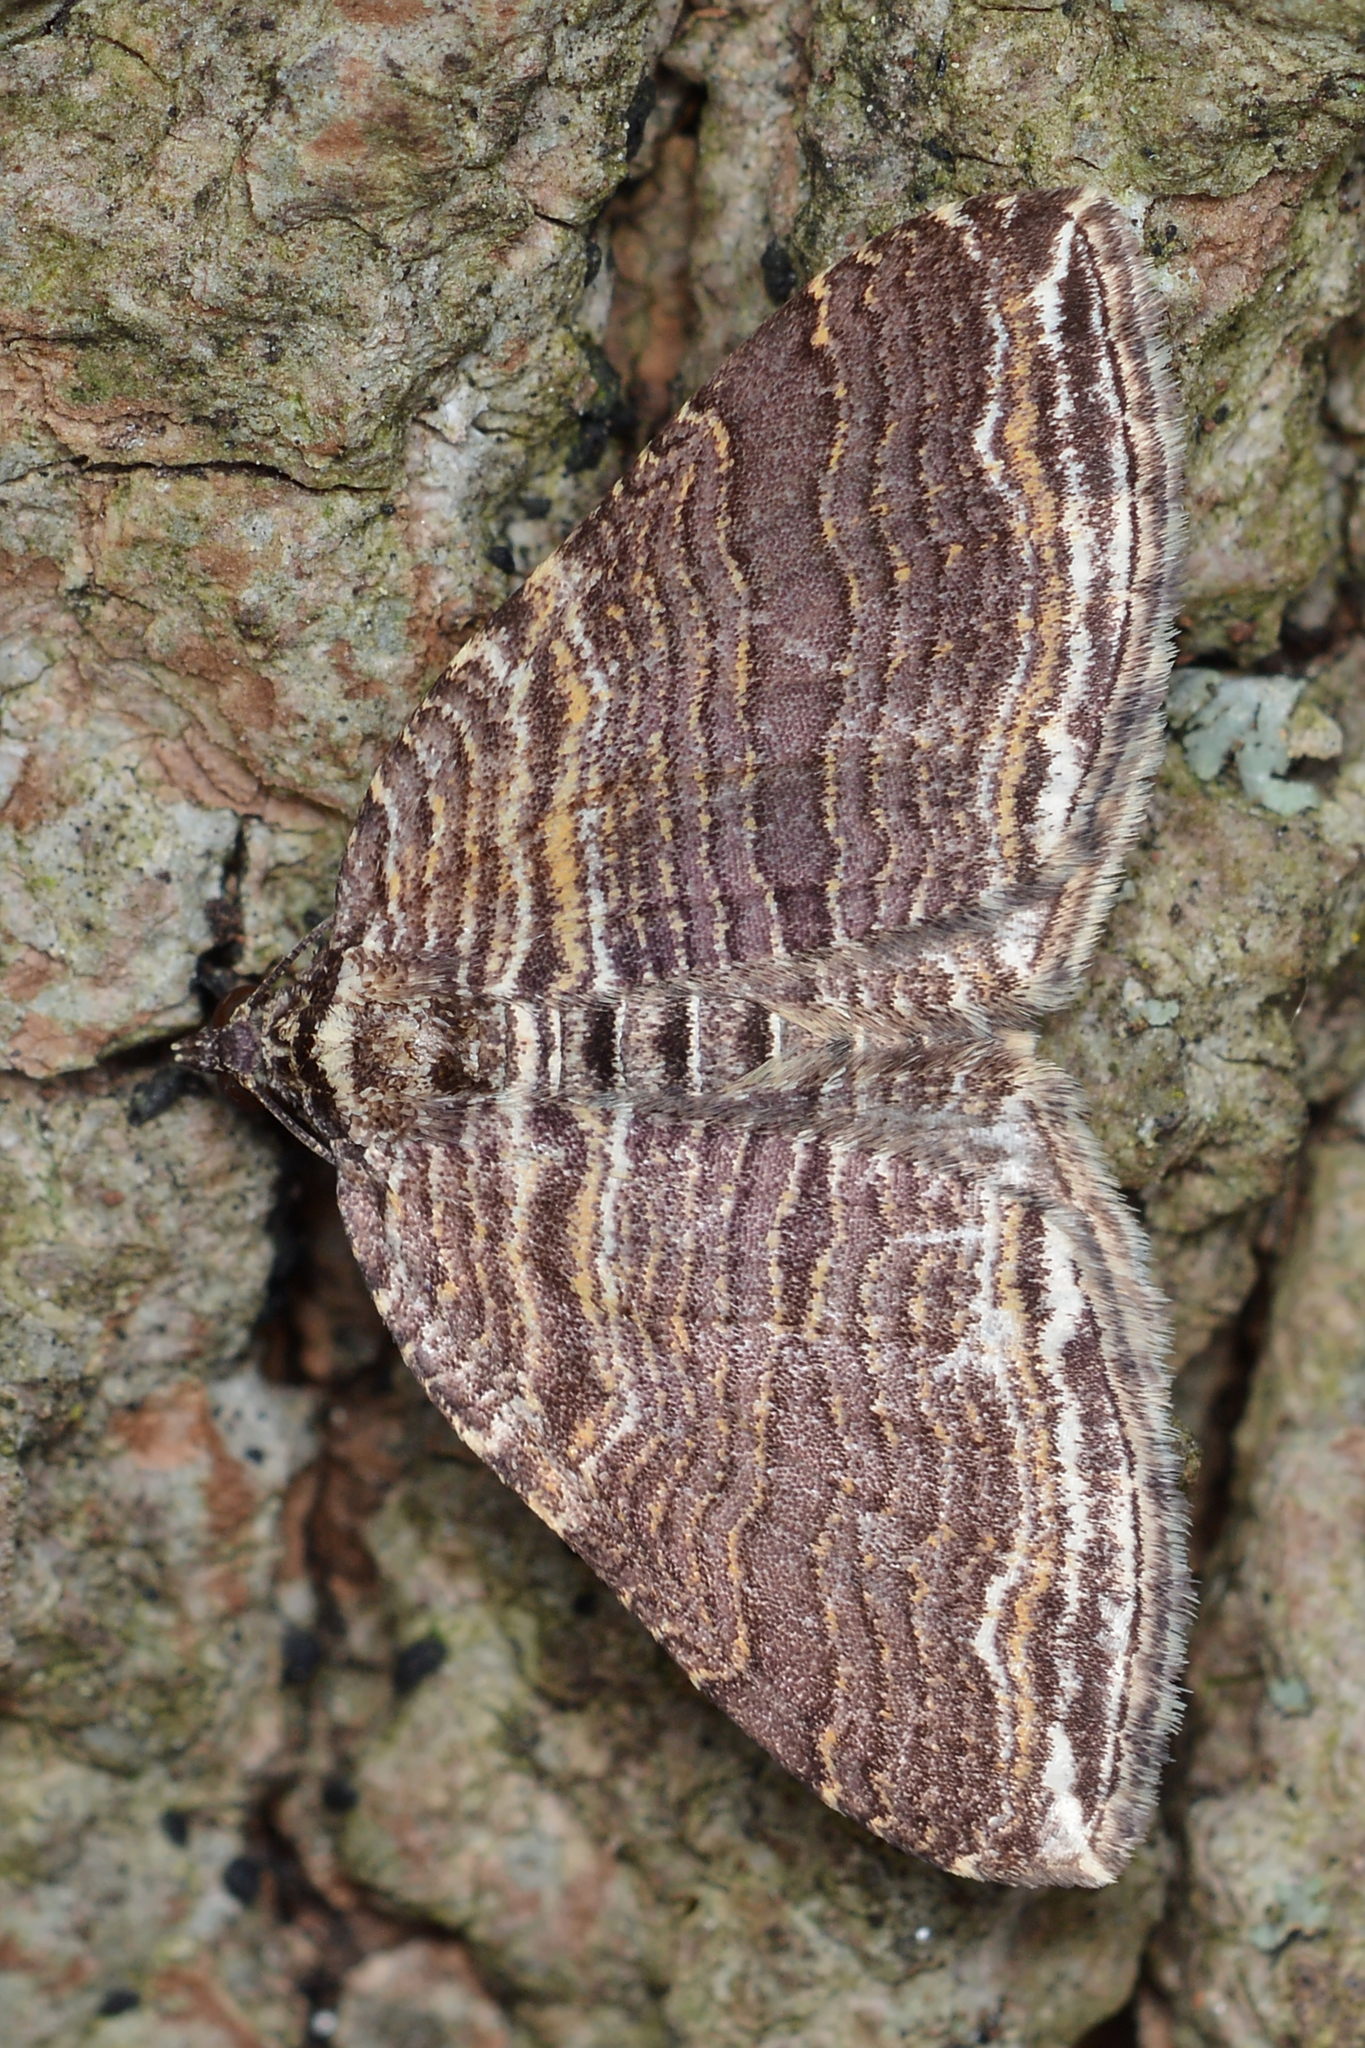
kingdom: Animalia
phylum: Arthropoda
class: Insecta
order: Lepidoptera
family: Geometridae
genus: Anticlea
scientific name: Anticlea multiferata
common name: Many-lined carpet
